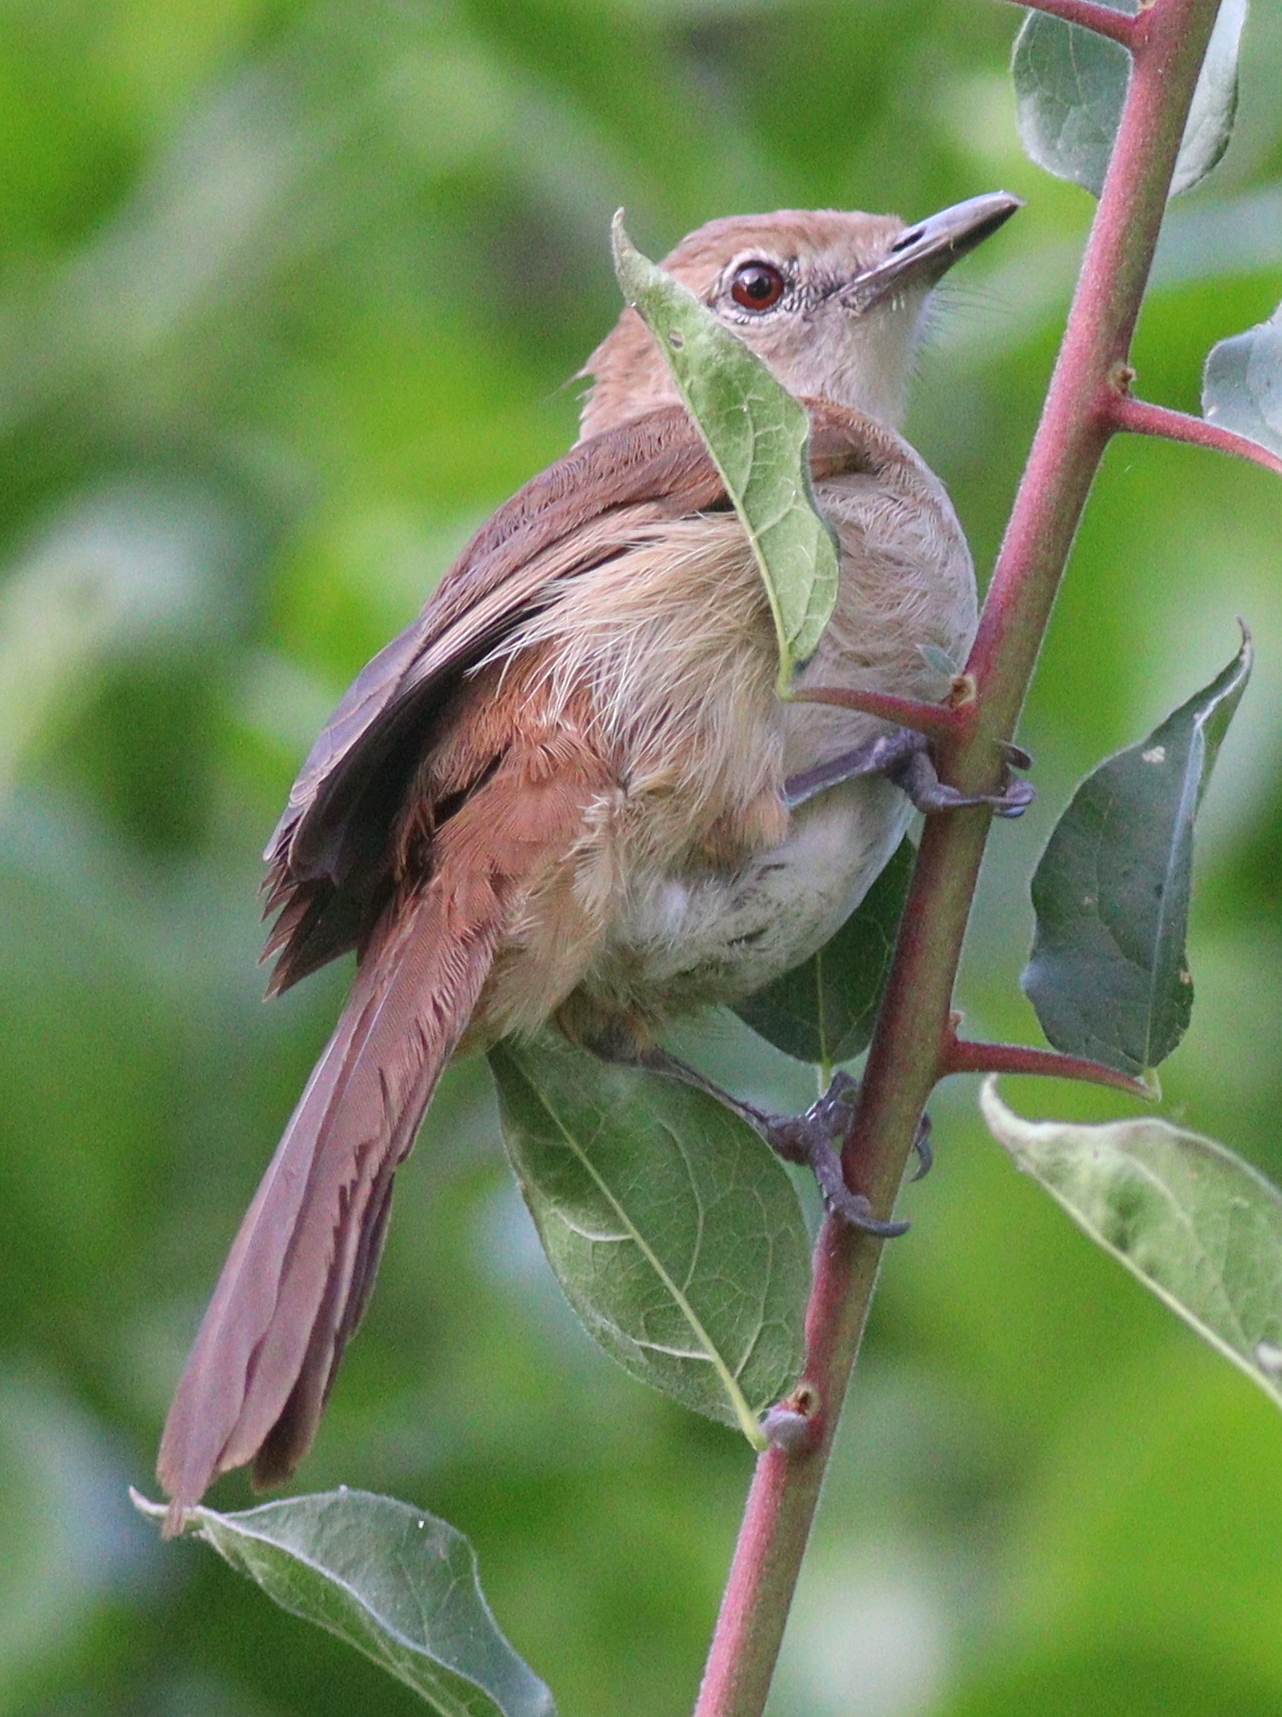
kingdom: Animalia
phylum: Chordata
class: Aves
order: Passeriformes
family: Pycnonotidae
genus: Phyllastrephus
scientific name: Phyllastrephus strepitans
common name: Northern brownbul
